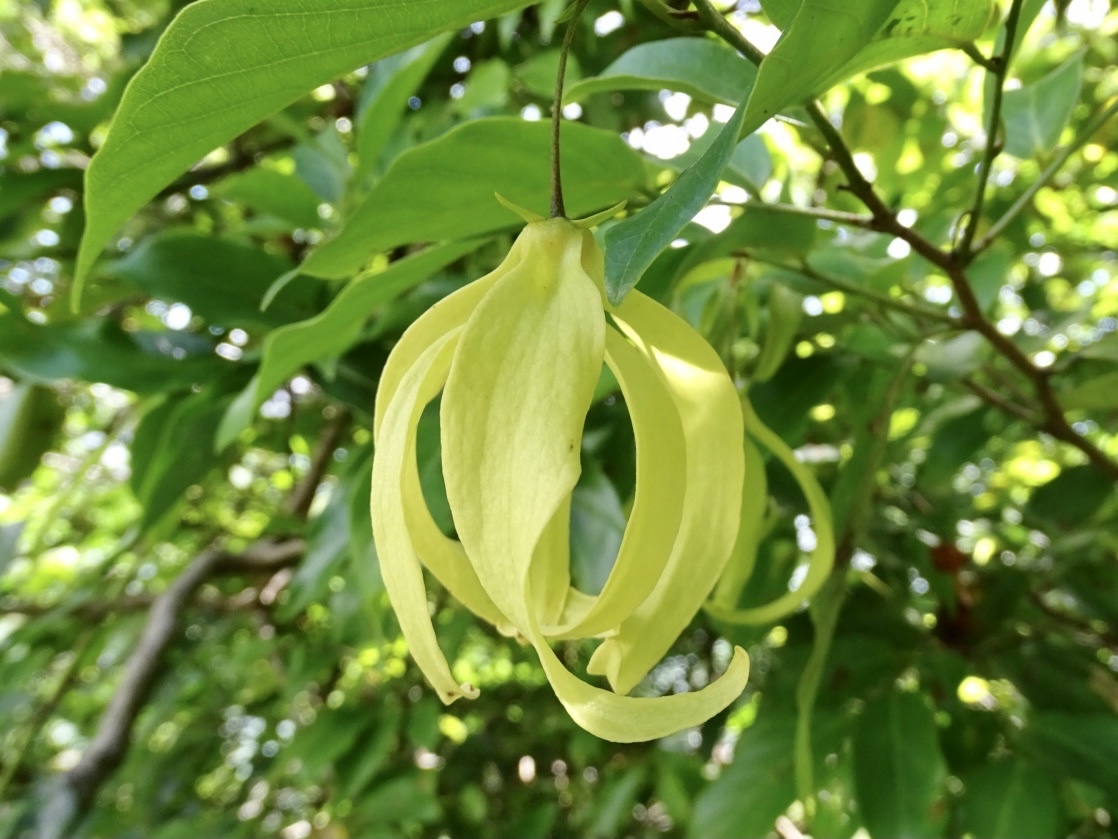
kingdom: Plantae
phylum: Tracheophyta
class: Magnoliopsida
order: Magnoliales
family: Annonaceae
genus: Desmos
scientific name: Desmos chinensis
